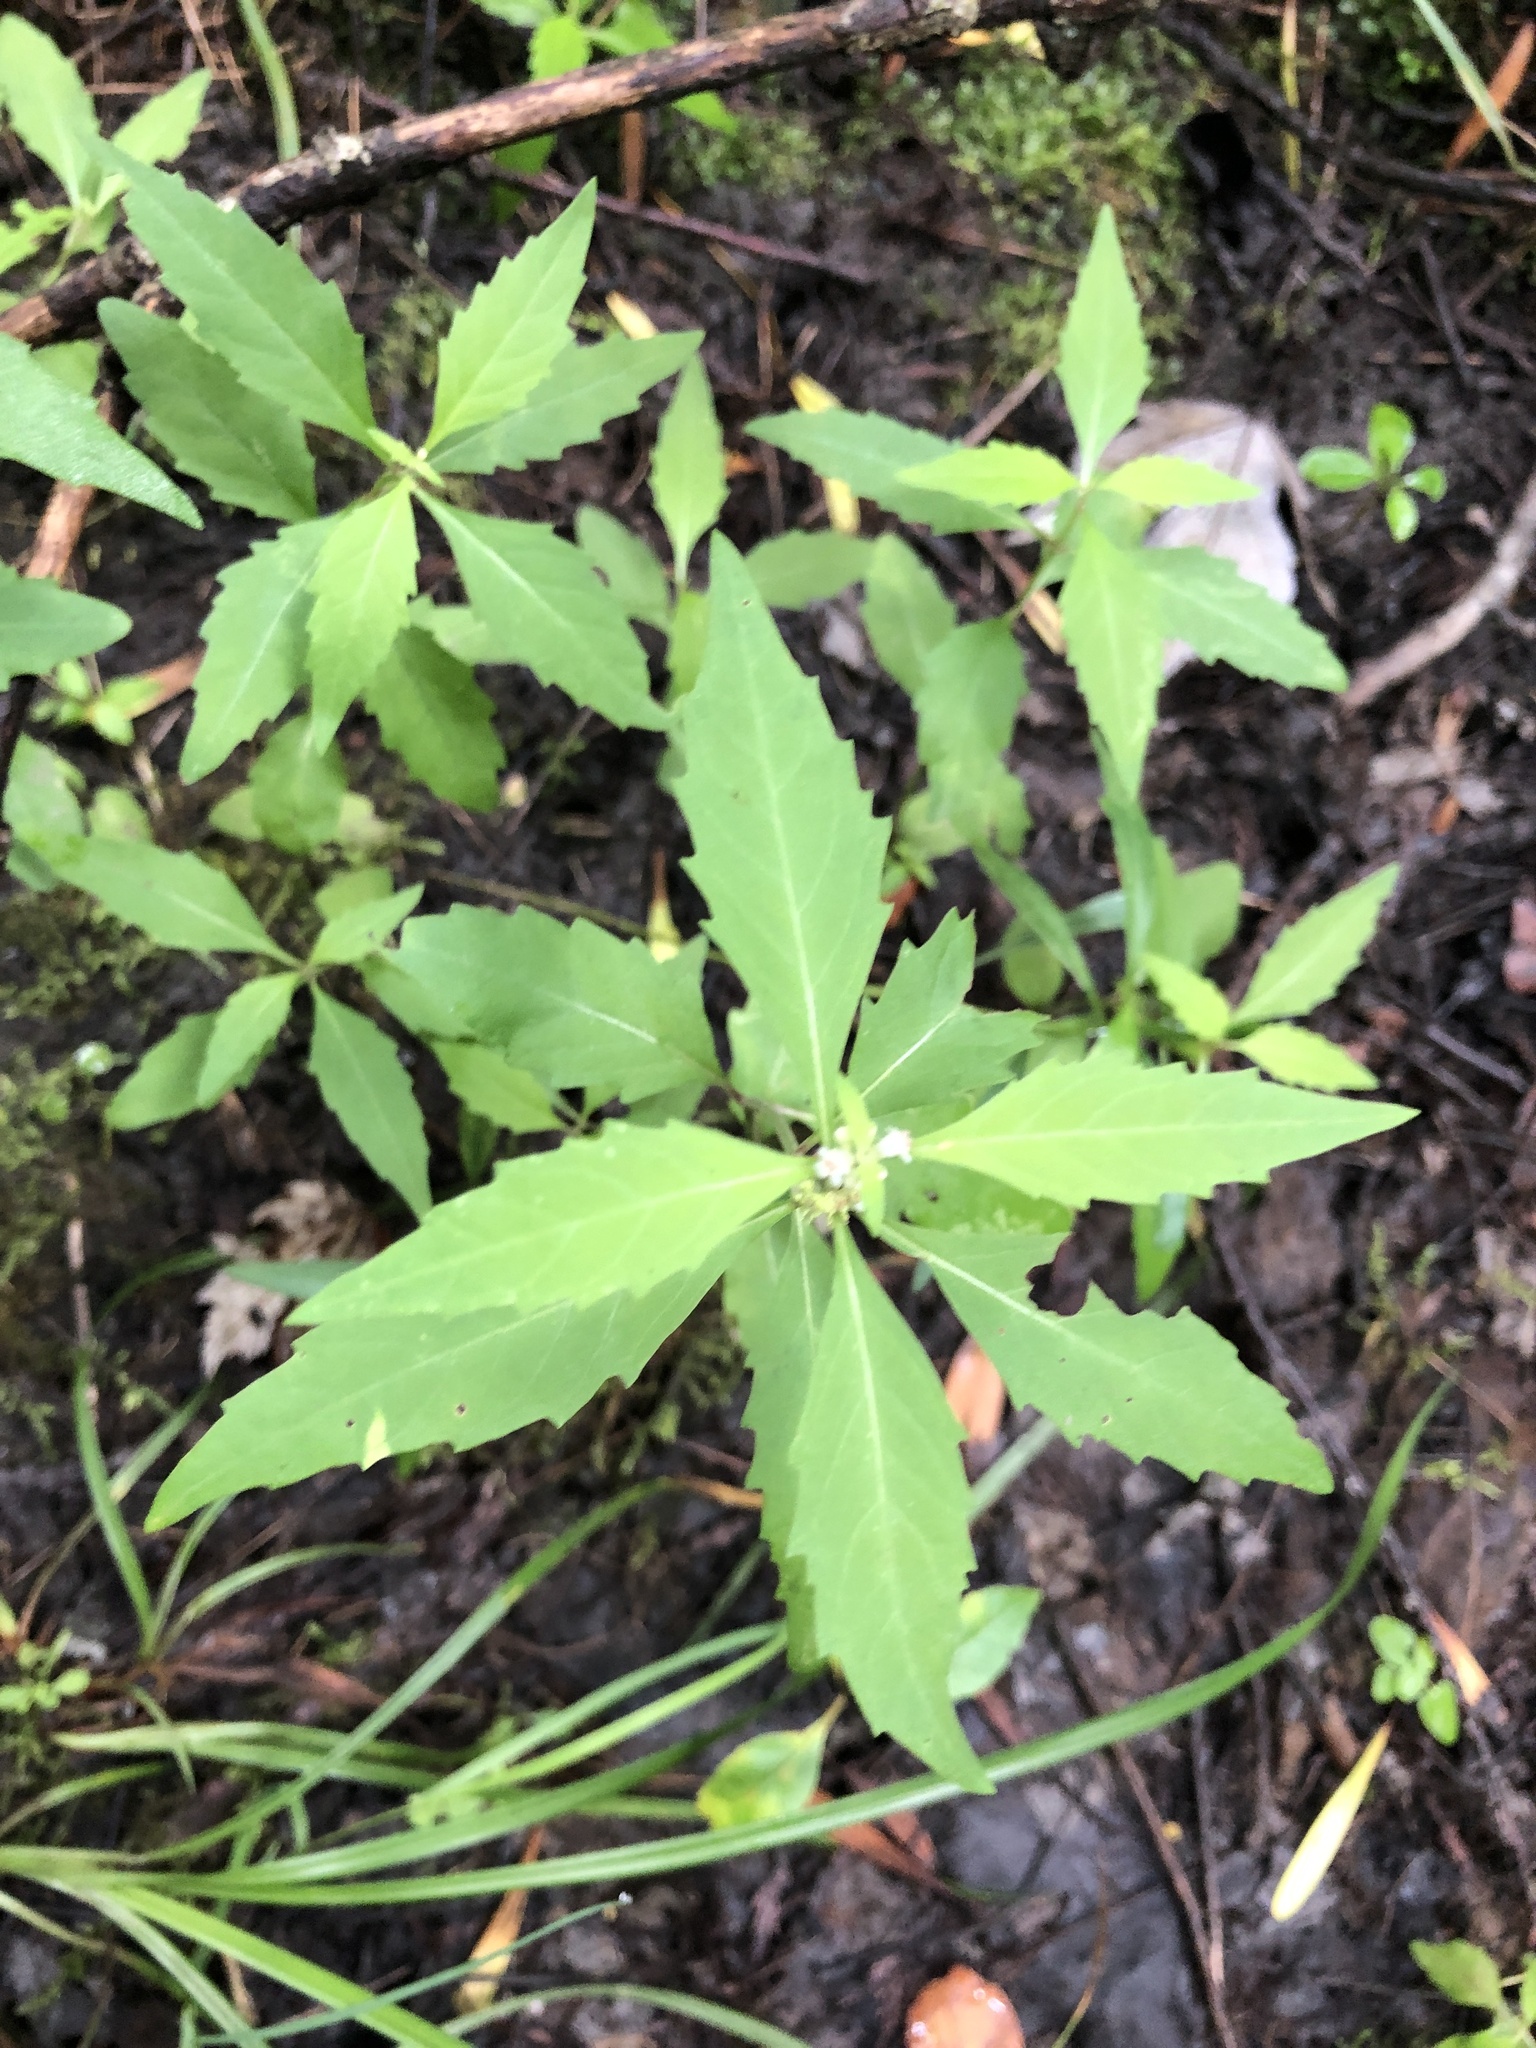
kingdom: Plantae
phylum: Tracheophyta
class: Magnoliopsida
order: Lamiales
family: Lamiaceae
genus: Lycopus
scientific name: Lycopus uniflorus
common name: Northern bugleweed
